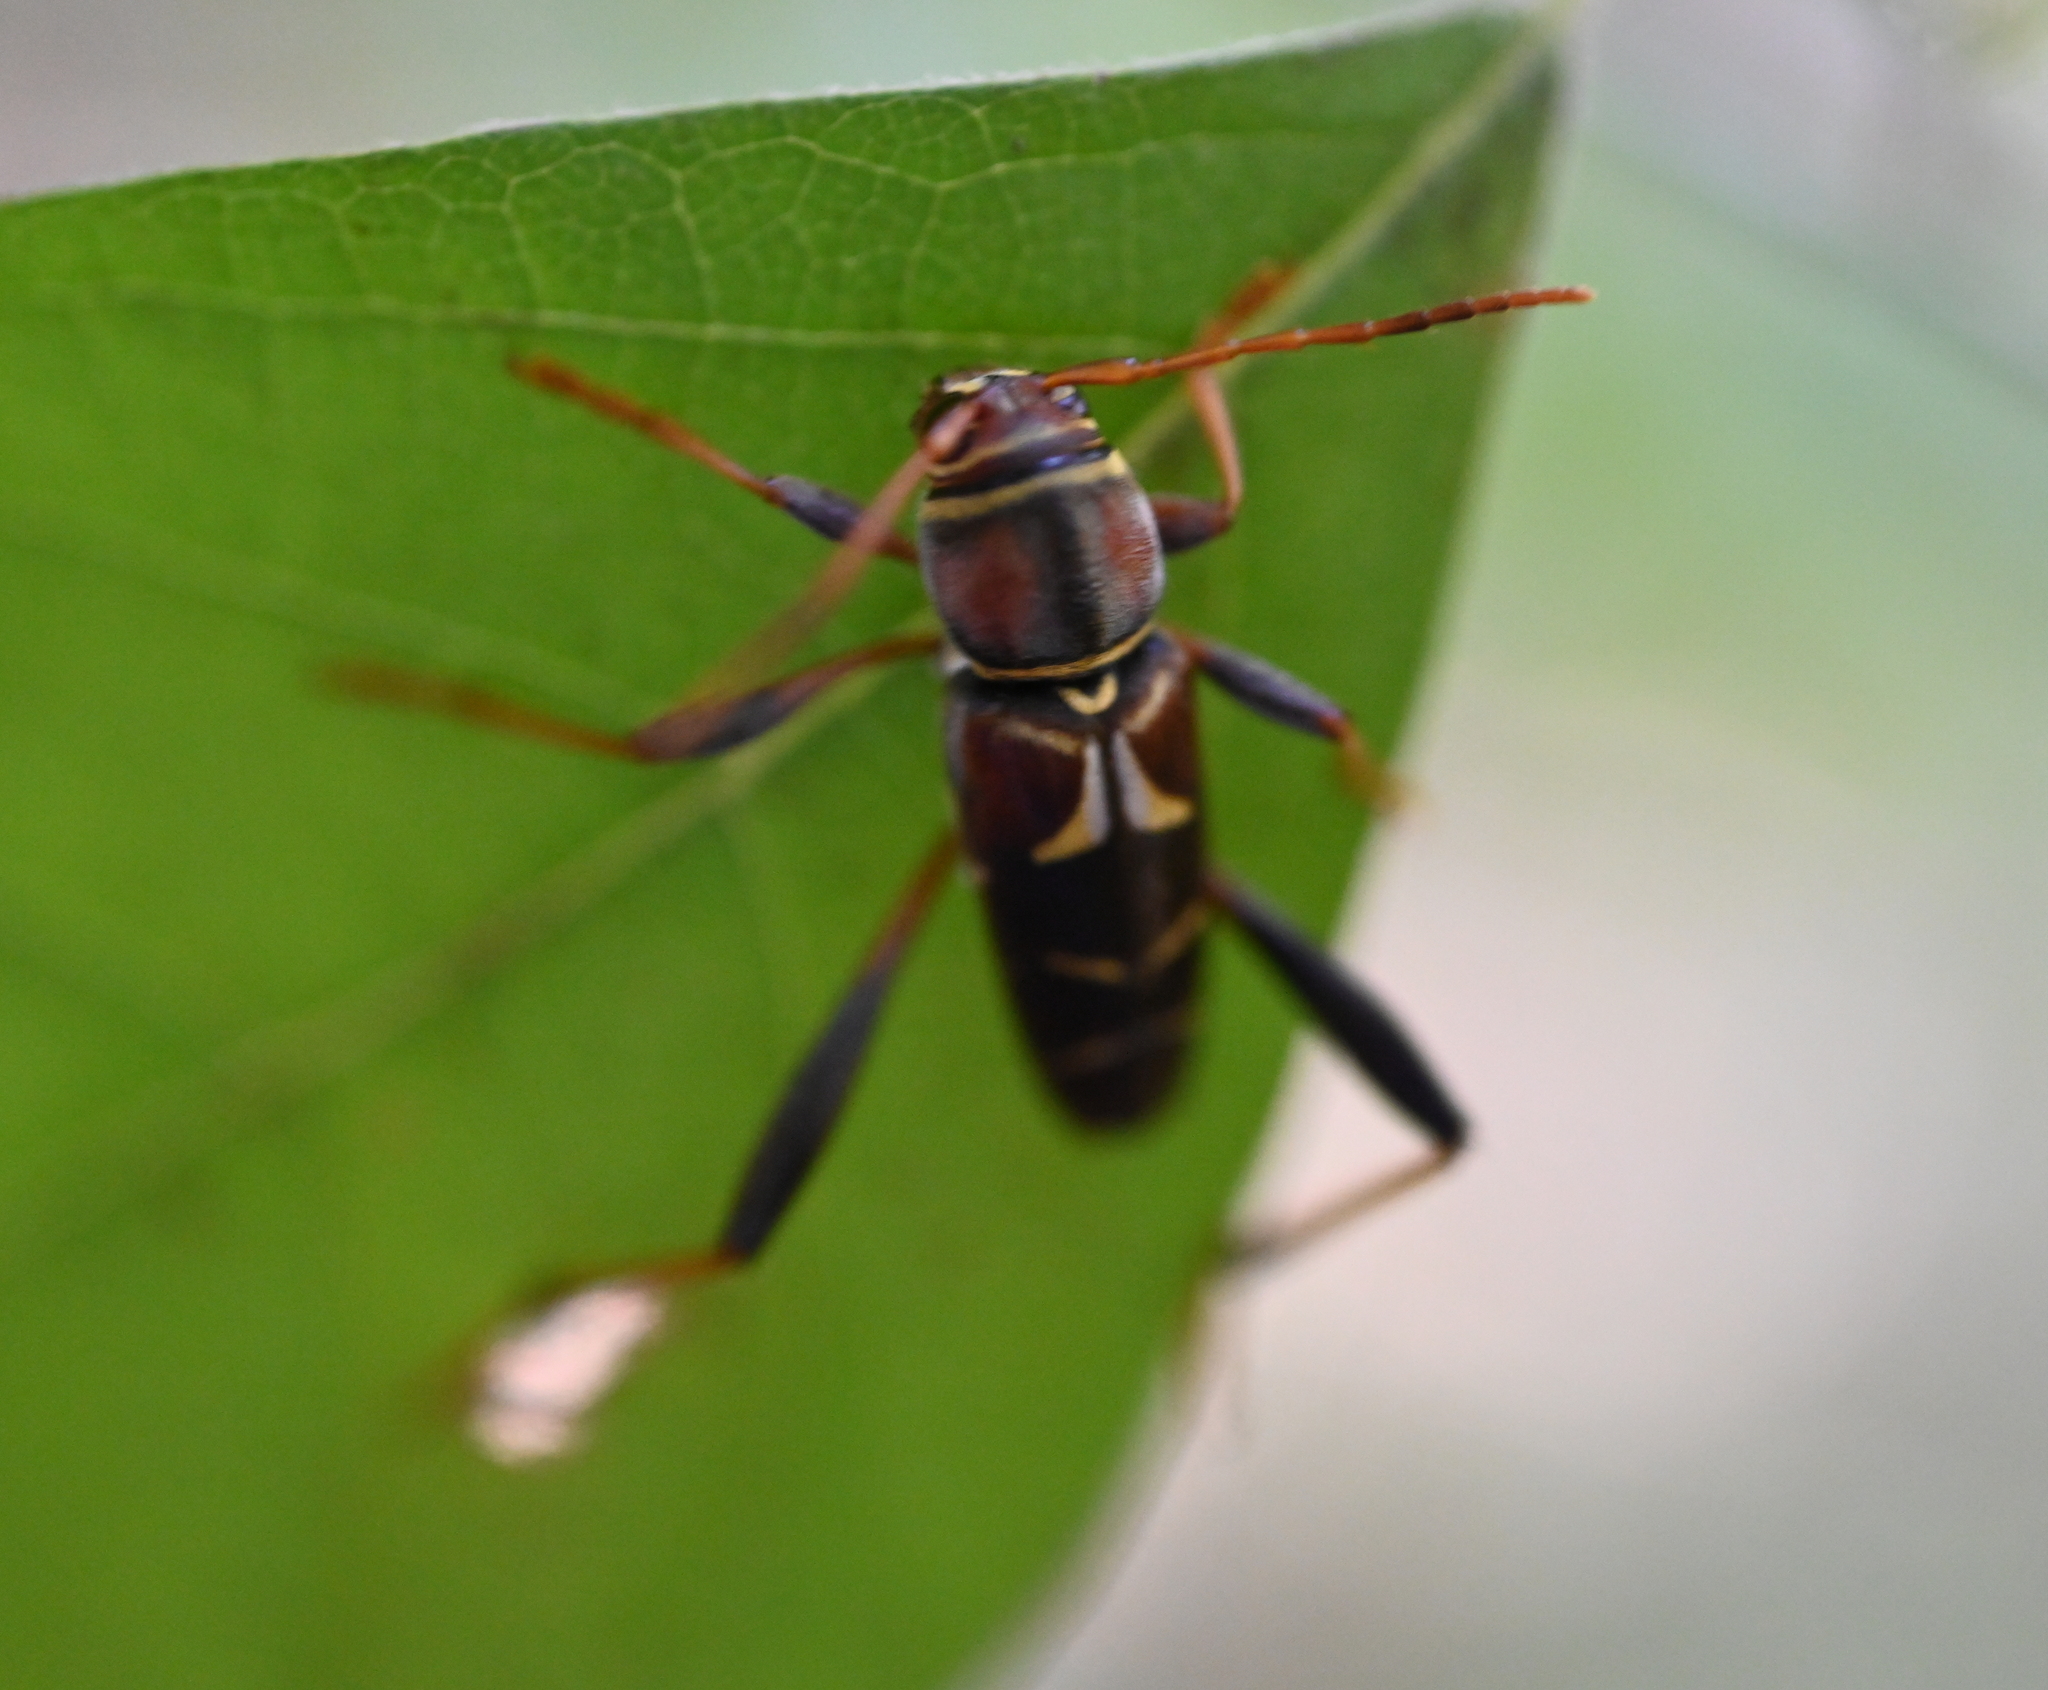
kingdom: Animalia
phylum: Arthropoda
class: Insecta
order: Coleoptera
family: Cerambycidae
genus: Neoclytus
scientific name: Neoclytus mucronatus
